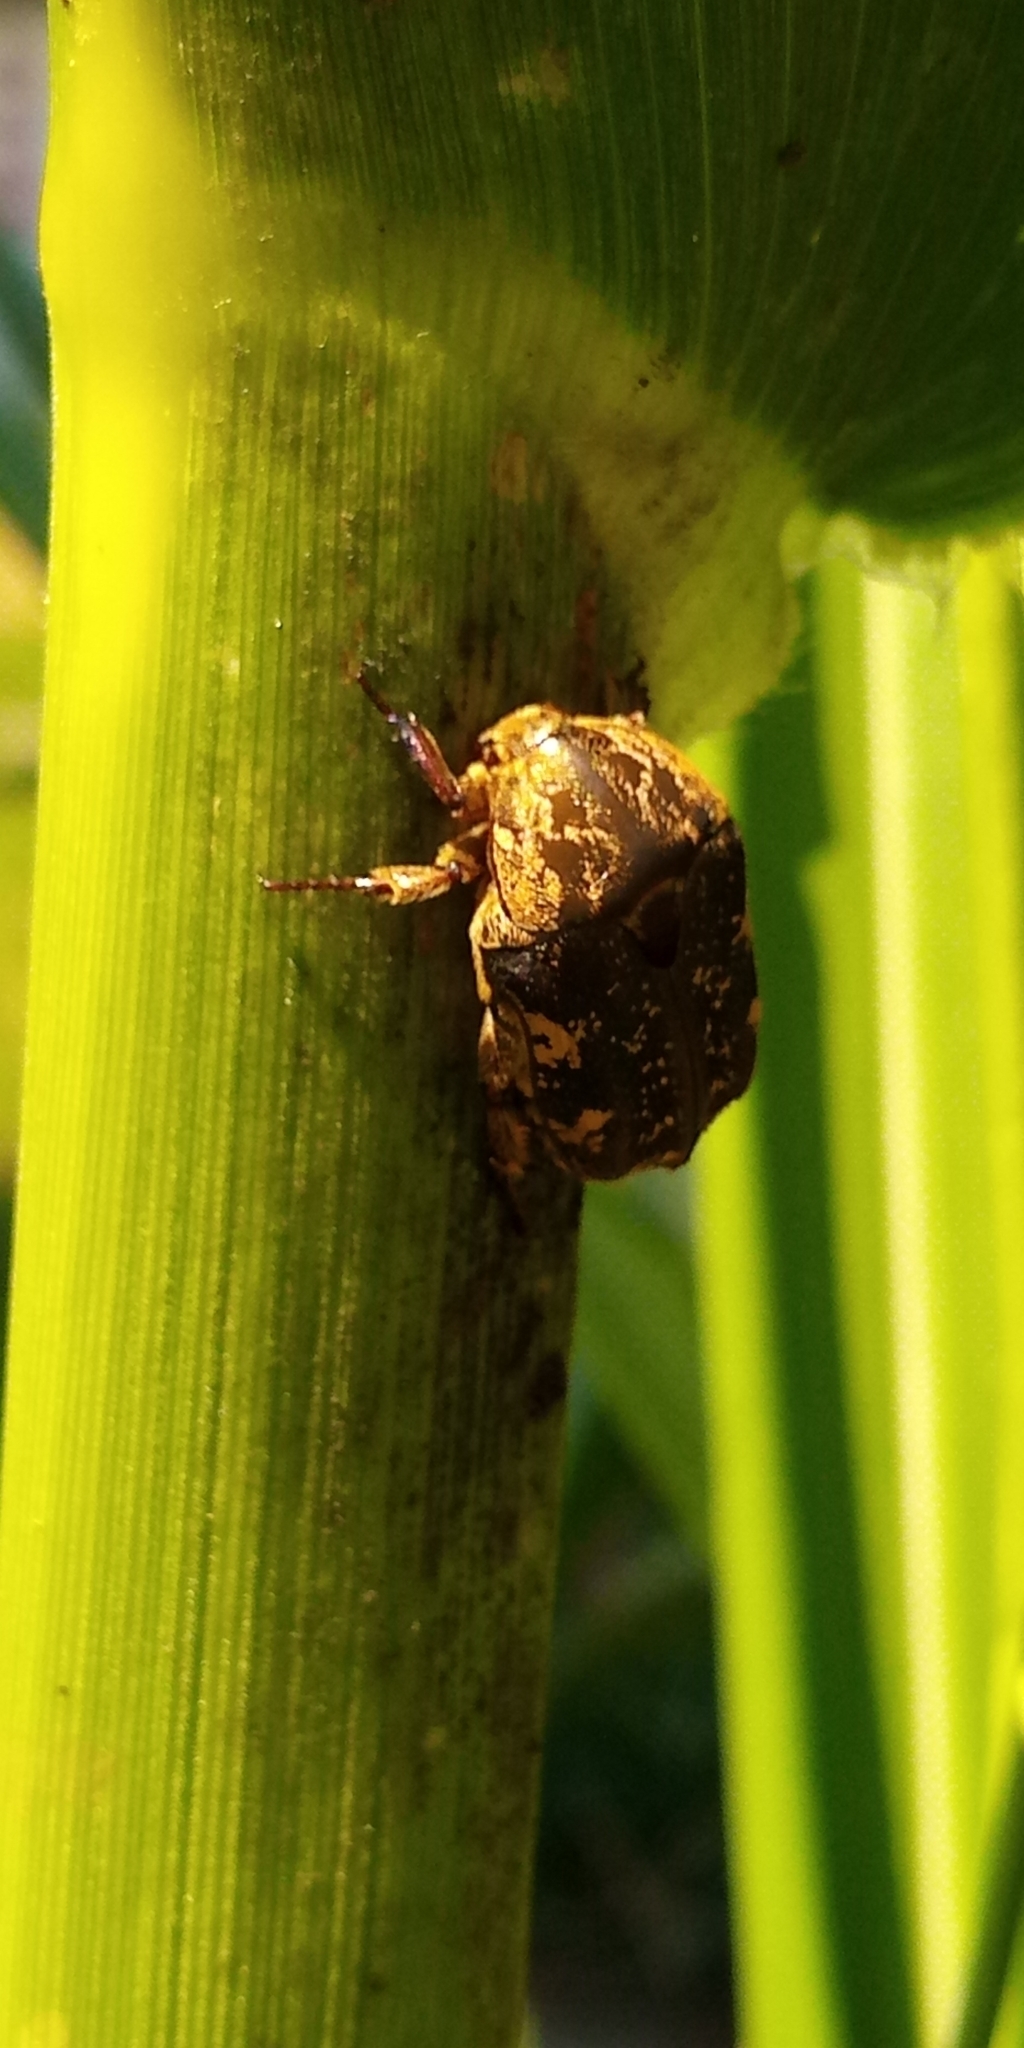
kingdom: Animalia
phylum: Arthropoda
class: Insecta
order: Coleoptera
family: Scarabaeidae
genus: Protaetia
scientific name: Protaetia culta
